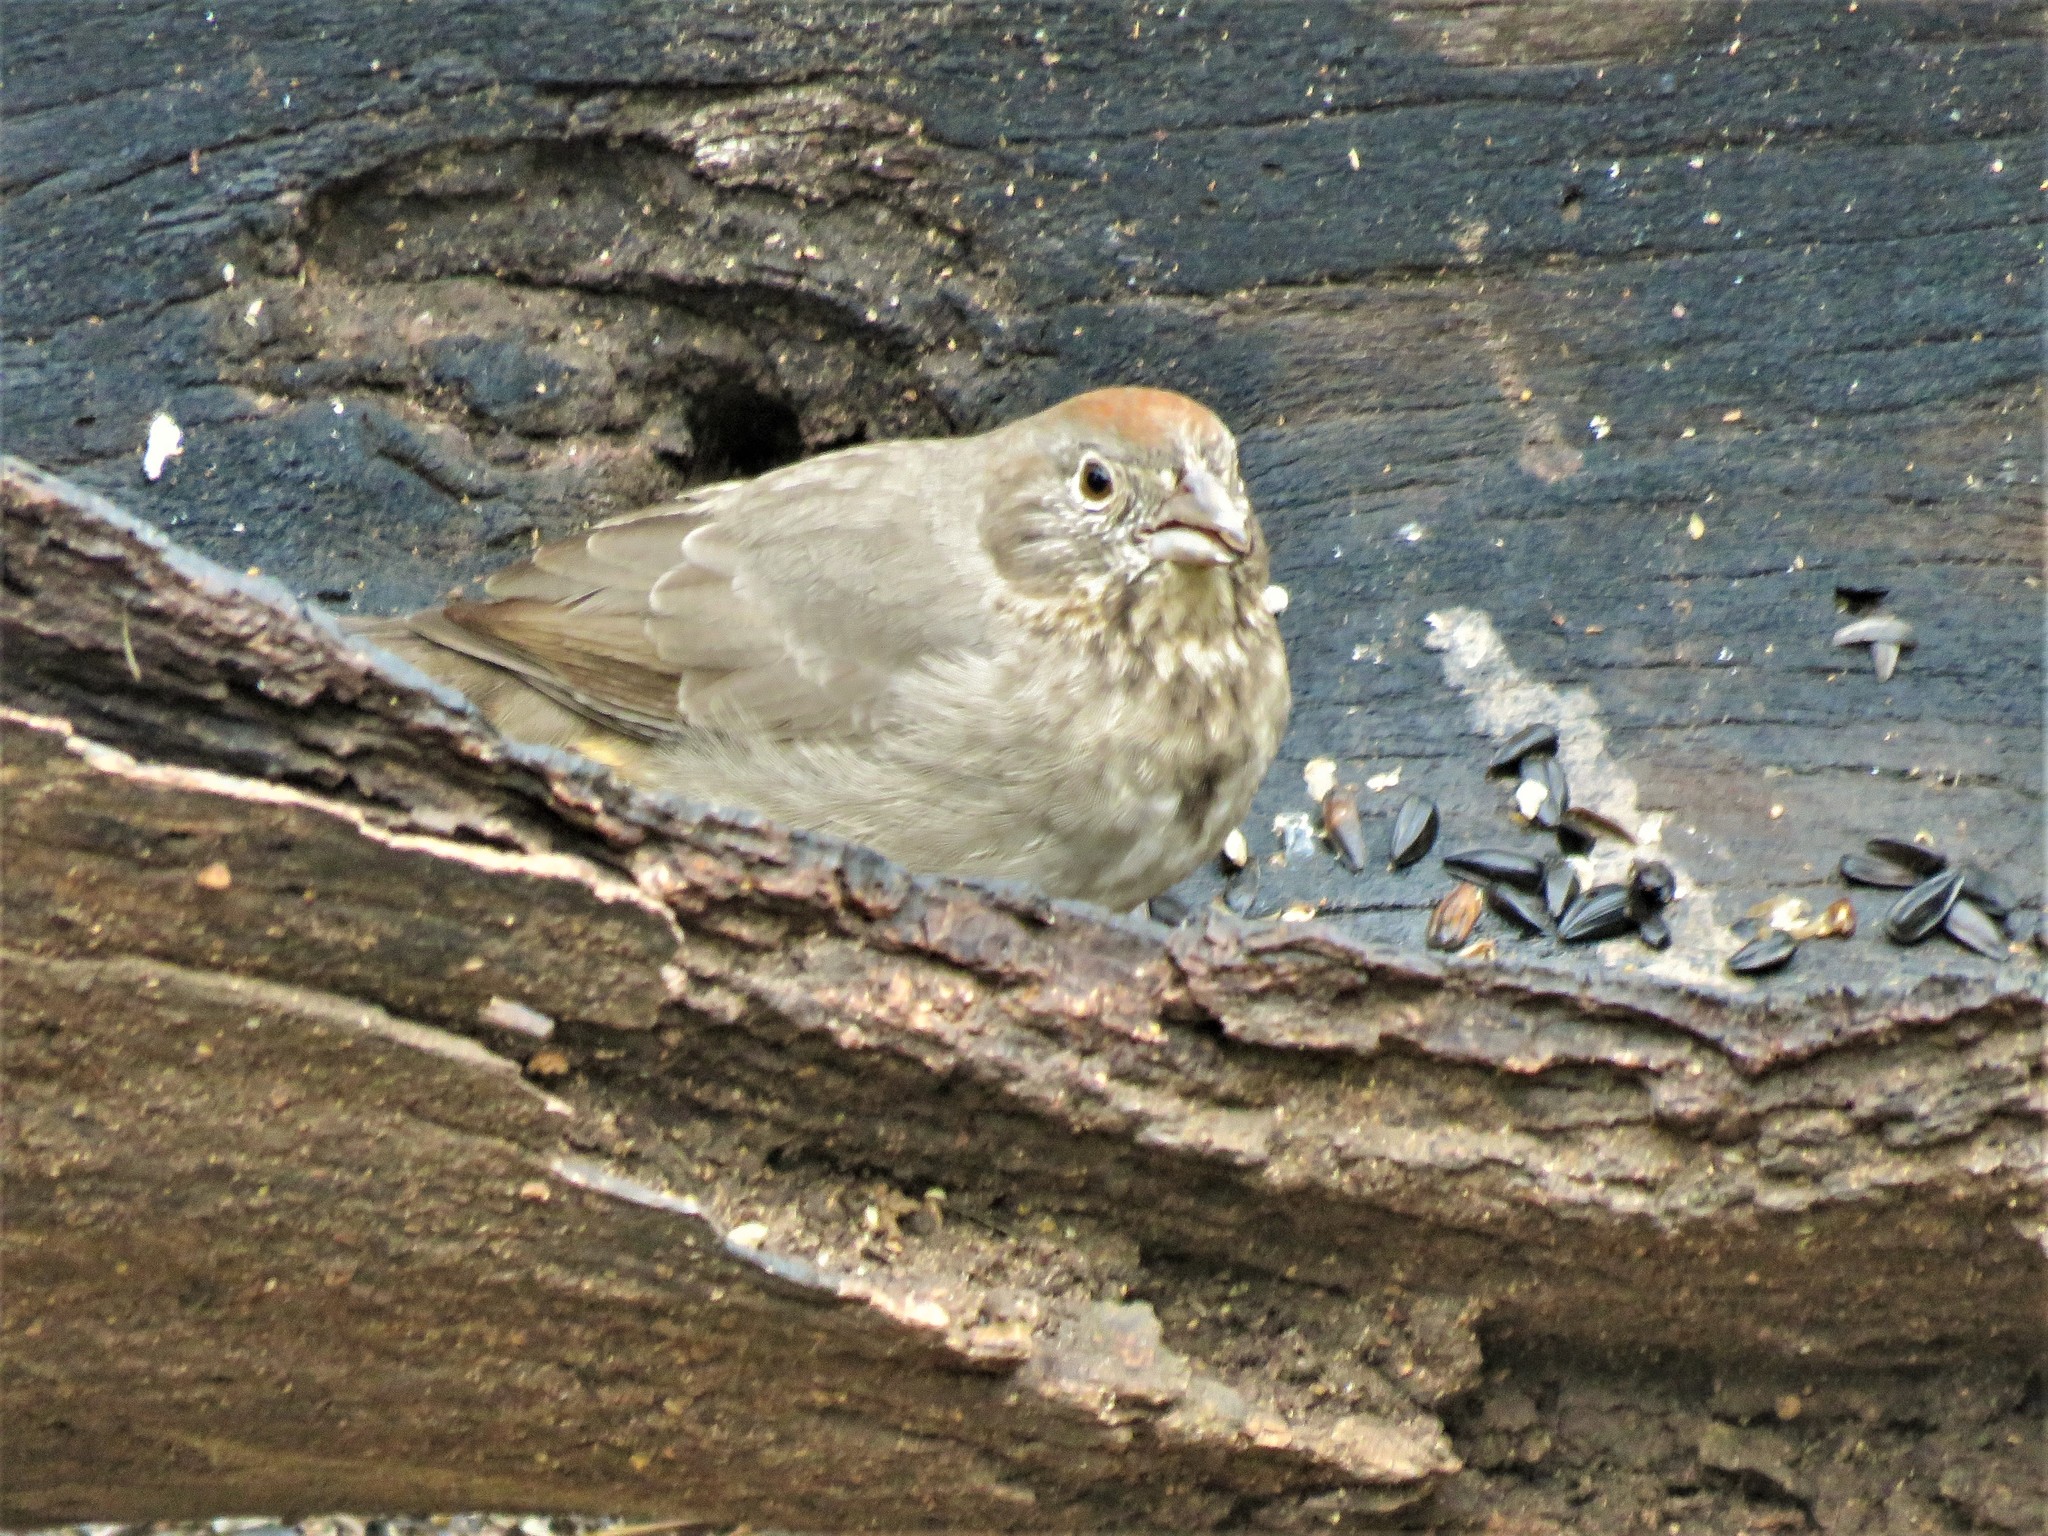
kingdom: Animalia
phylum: Chordata
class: Aves
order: Passeriformes
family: Passerellidae
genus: Melozone
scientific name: Melozone fusca
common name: Canyon towhee
